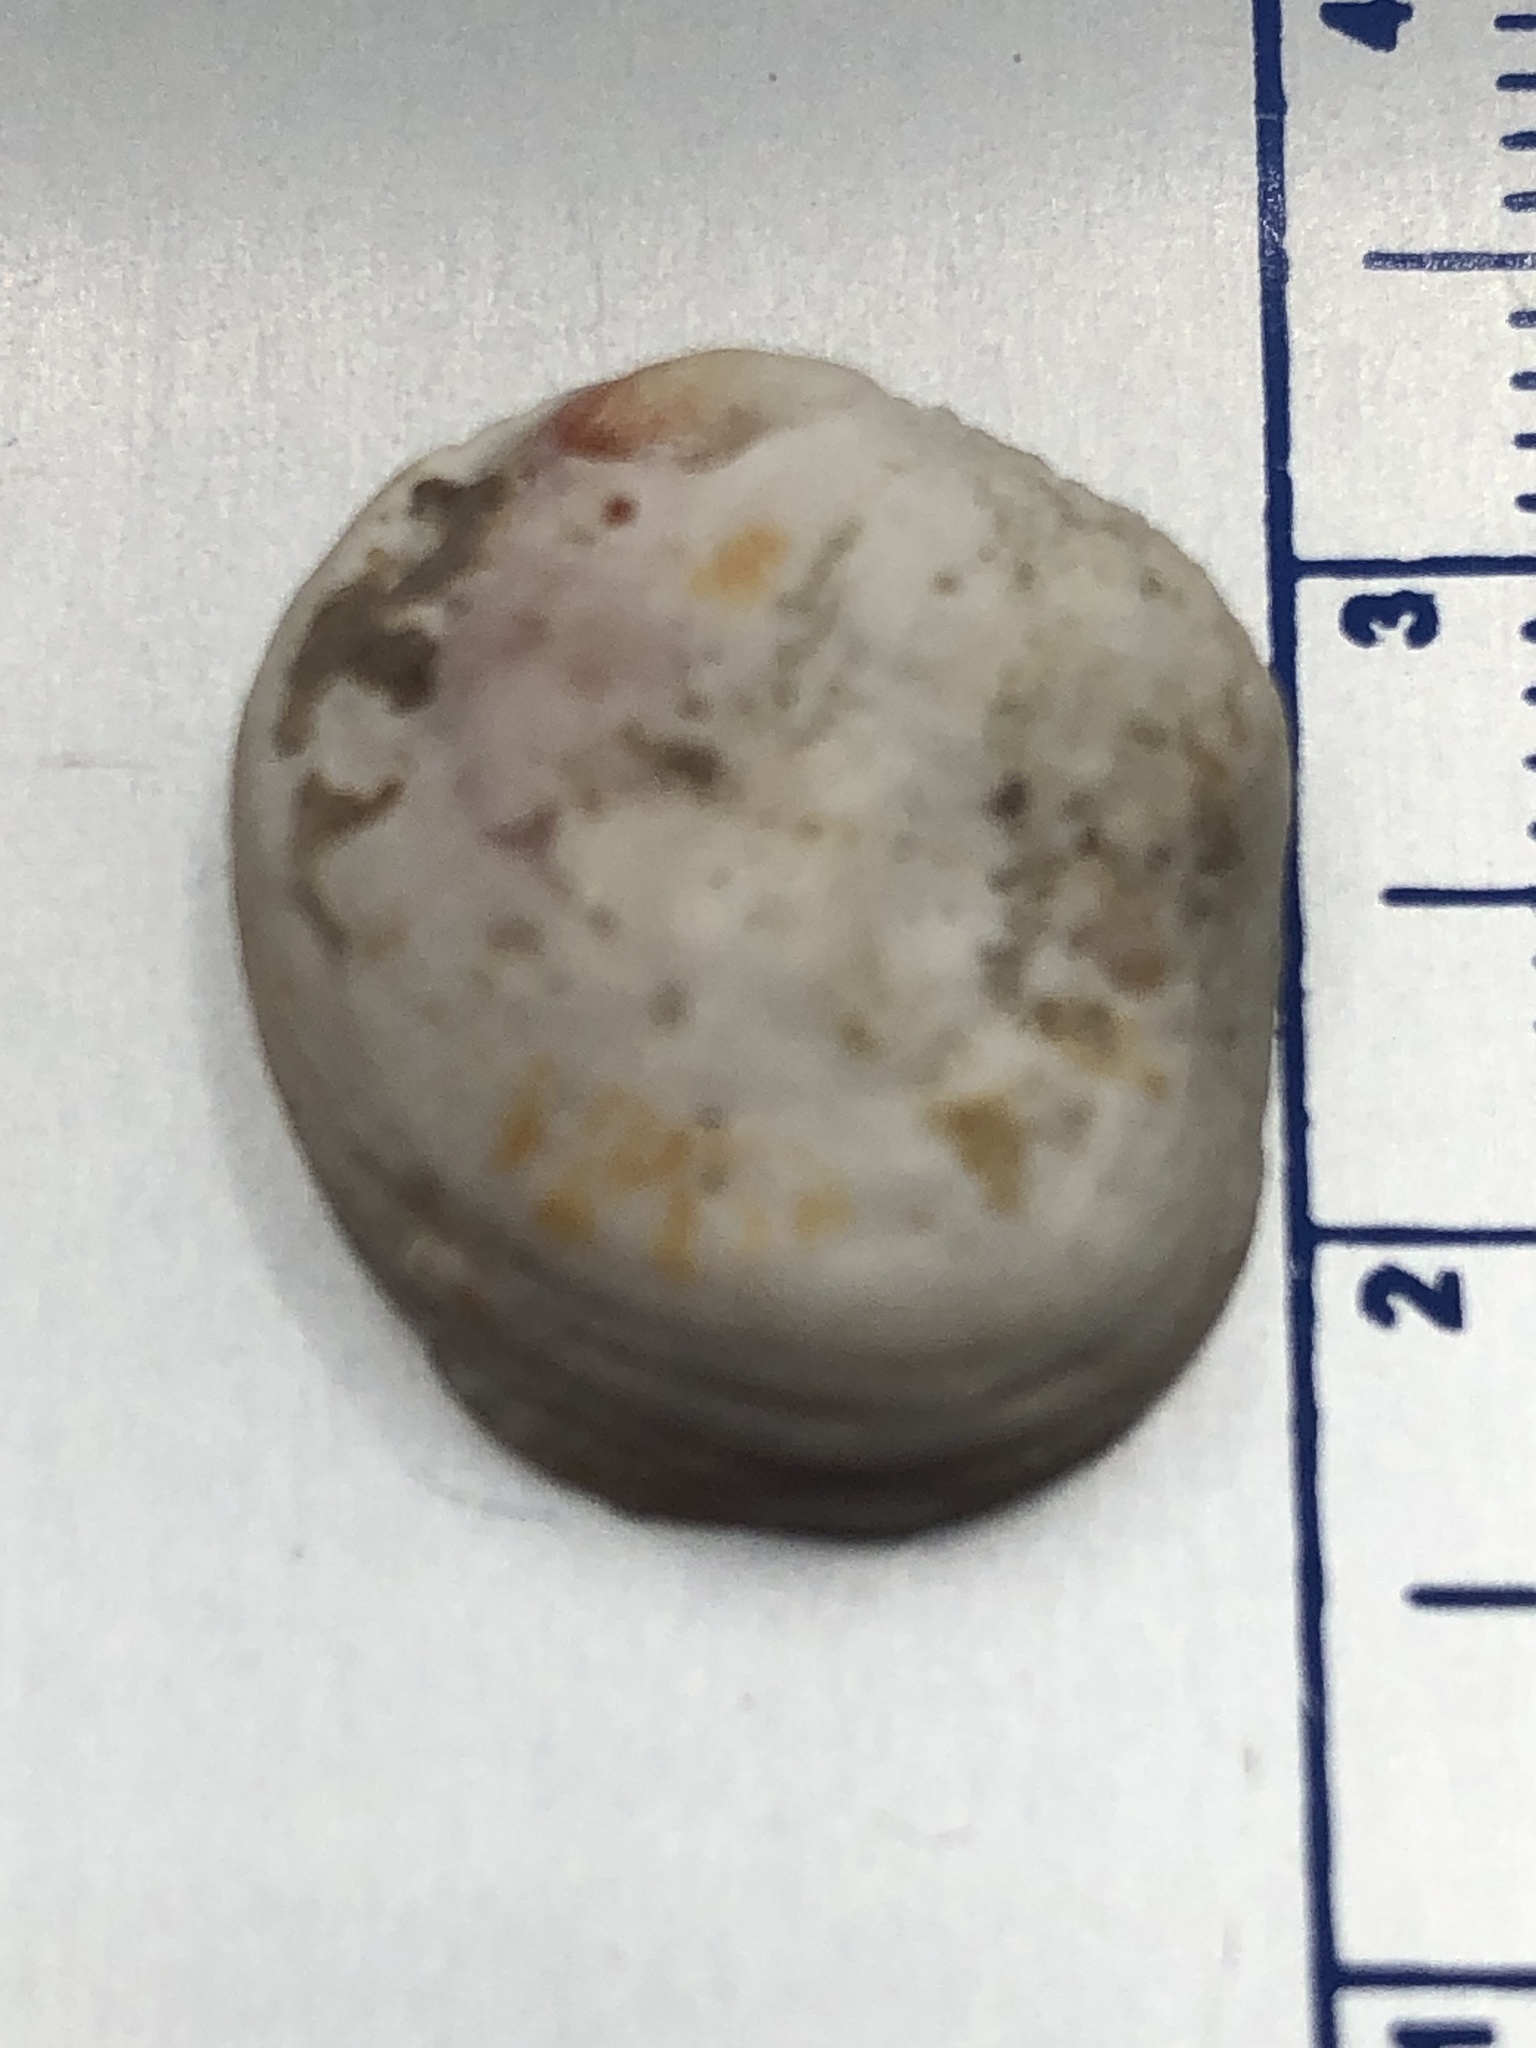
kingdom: Animalia
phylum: Mollusca
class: Bivalvia
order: Venerida
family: Chamidae
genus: Chama
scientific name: Chama congregata
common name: Corrugate jewelbox
